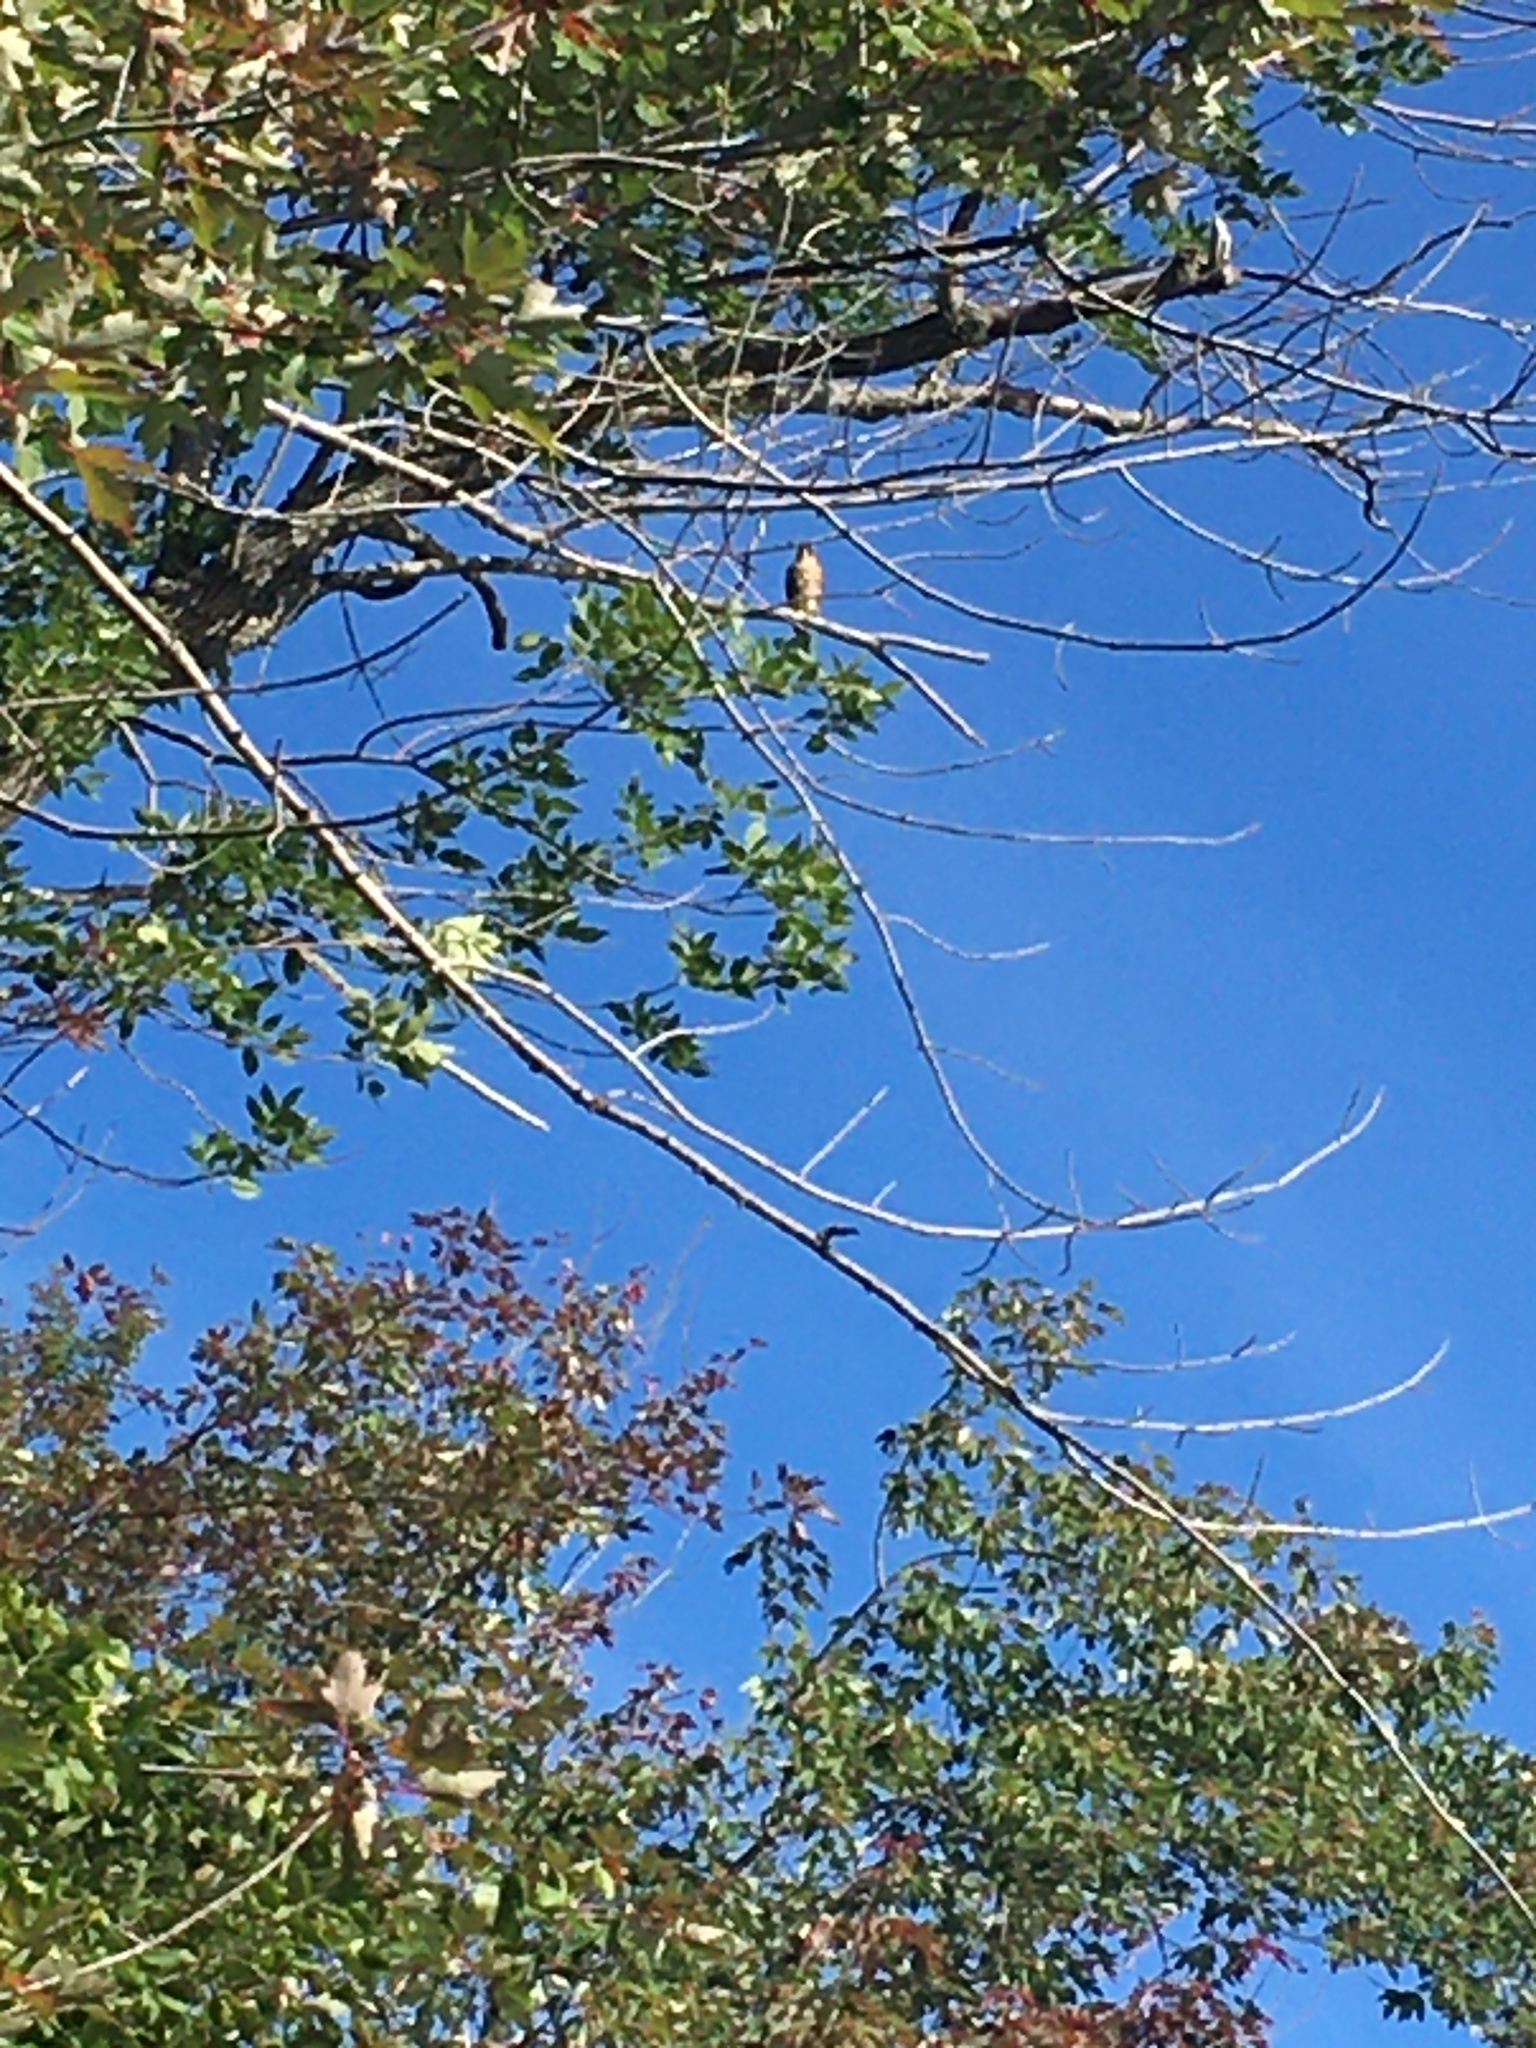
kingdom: Animalia
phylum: Chordata
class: Aves
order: Falconiformes
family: Falconidae
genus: Falco
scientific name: Falco columbarius
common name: Merlin
